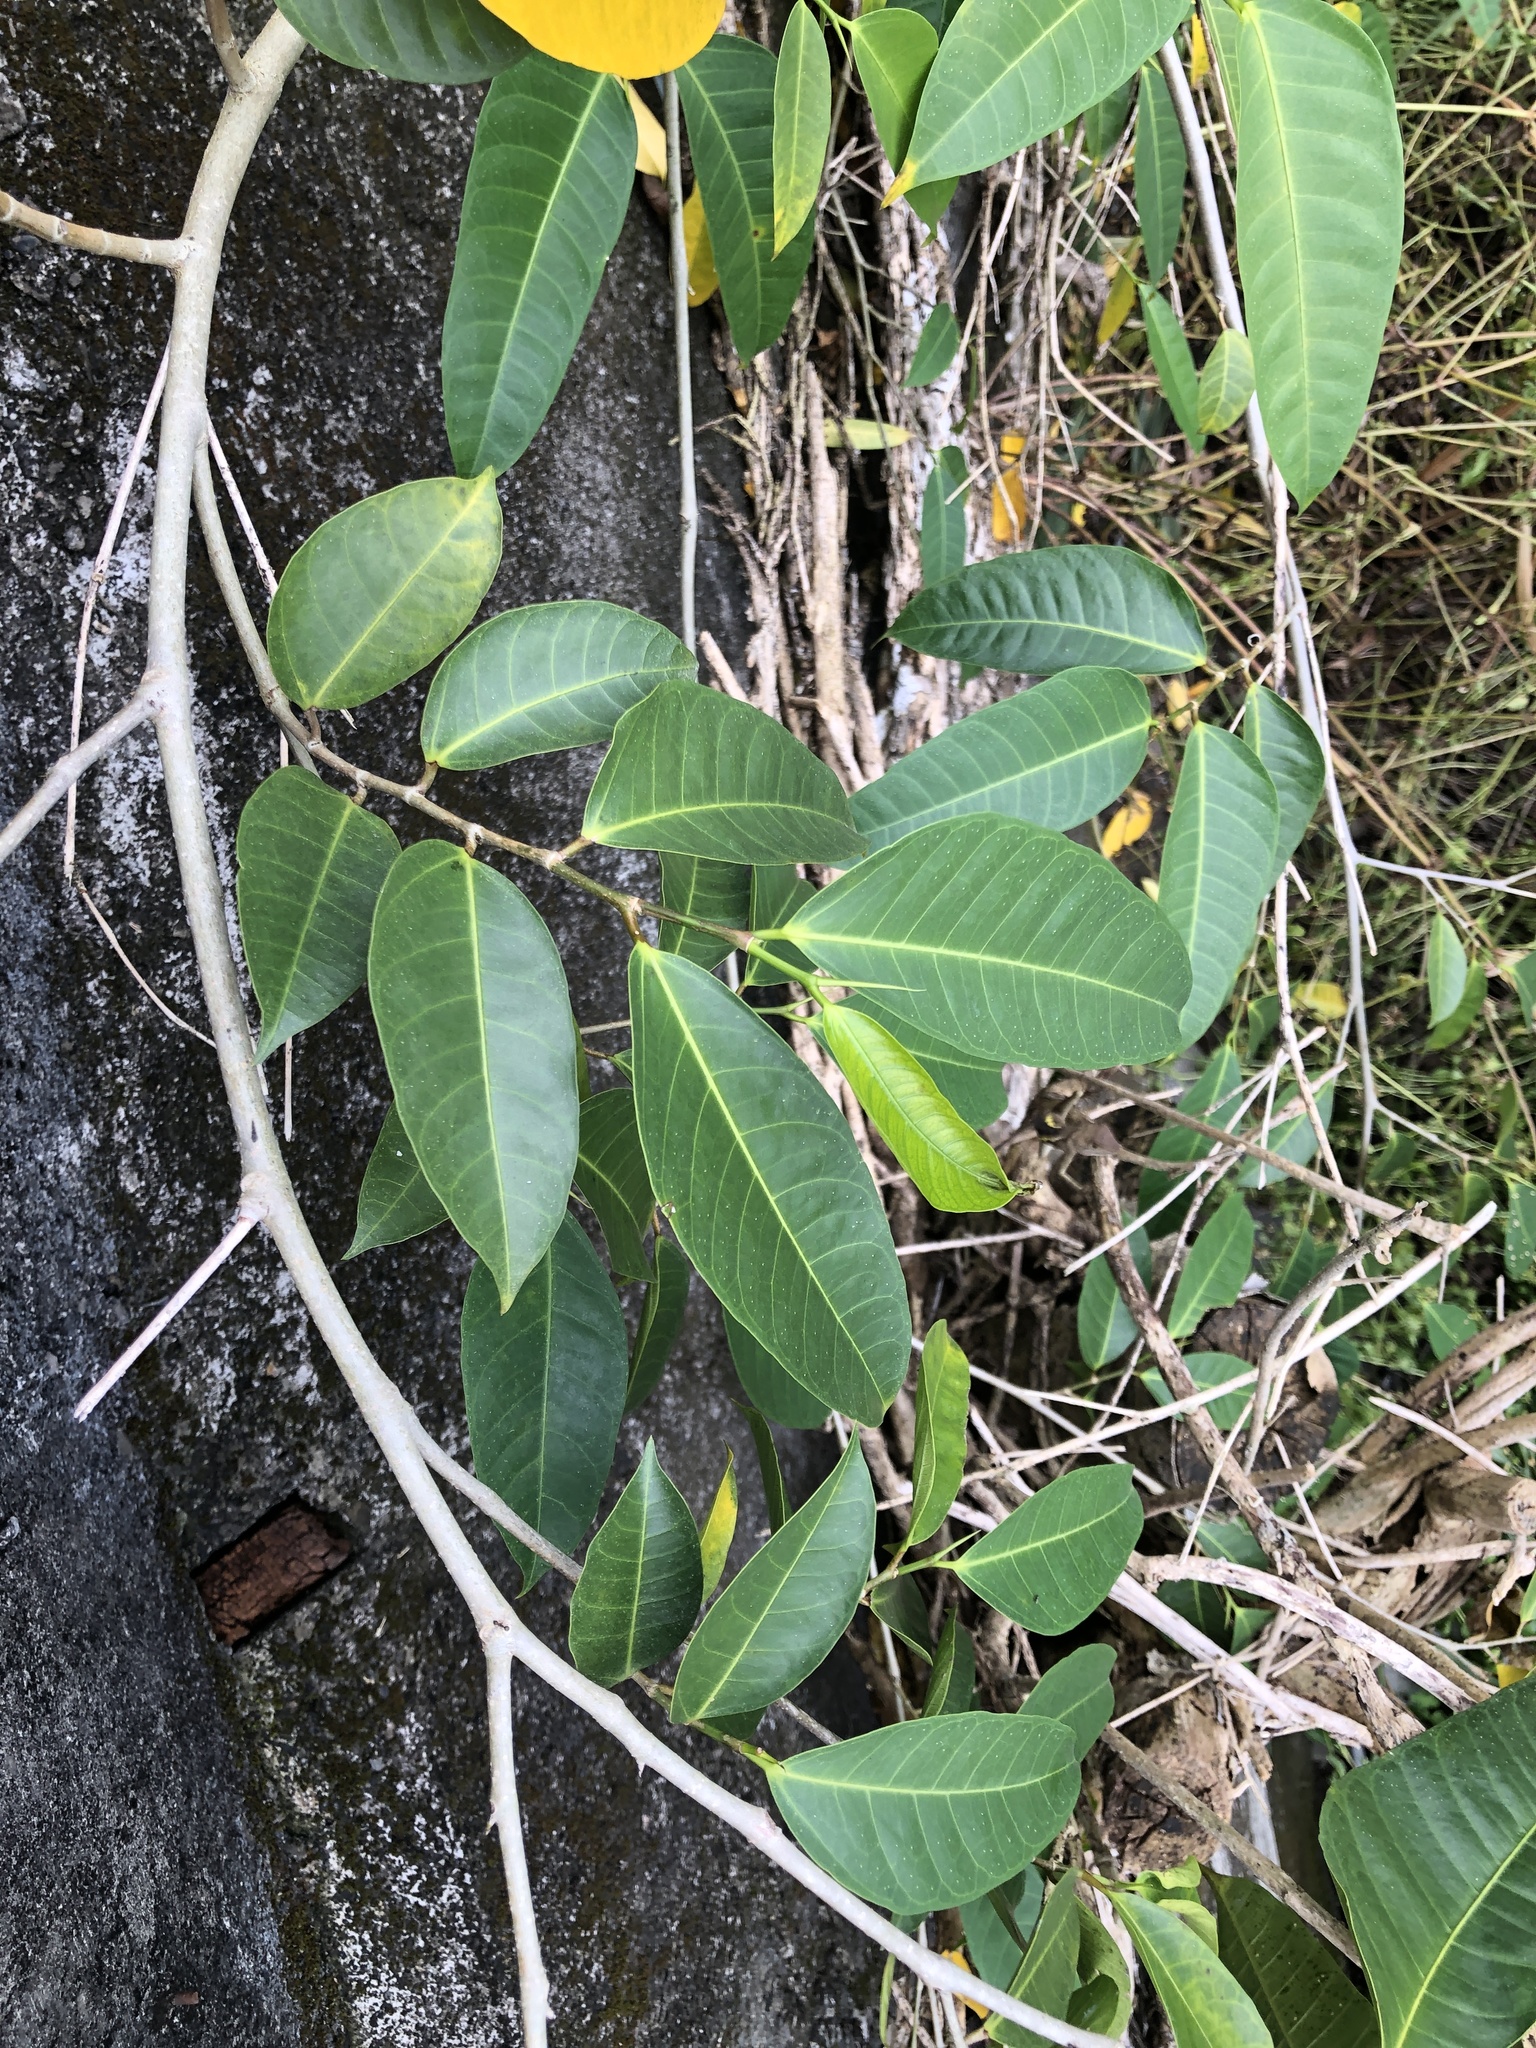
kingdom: Plantae
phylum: Tracheophyta
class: Magnoliopsida
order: Rosales
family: Moraceae
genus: Ficus
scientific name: Ficus virgata
